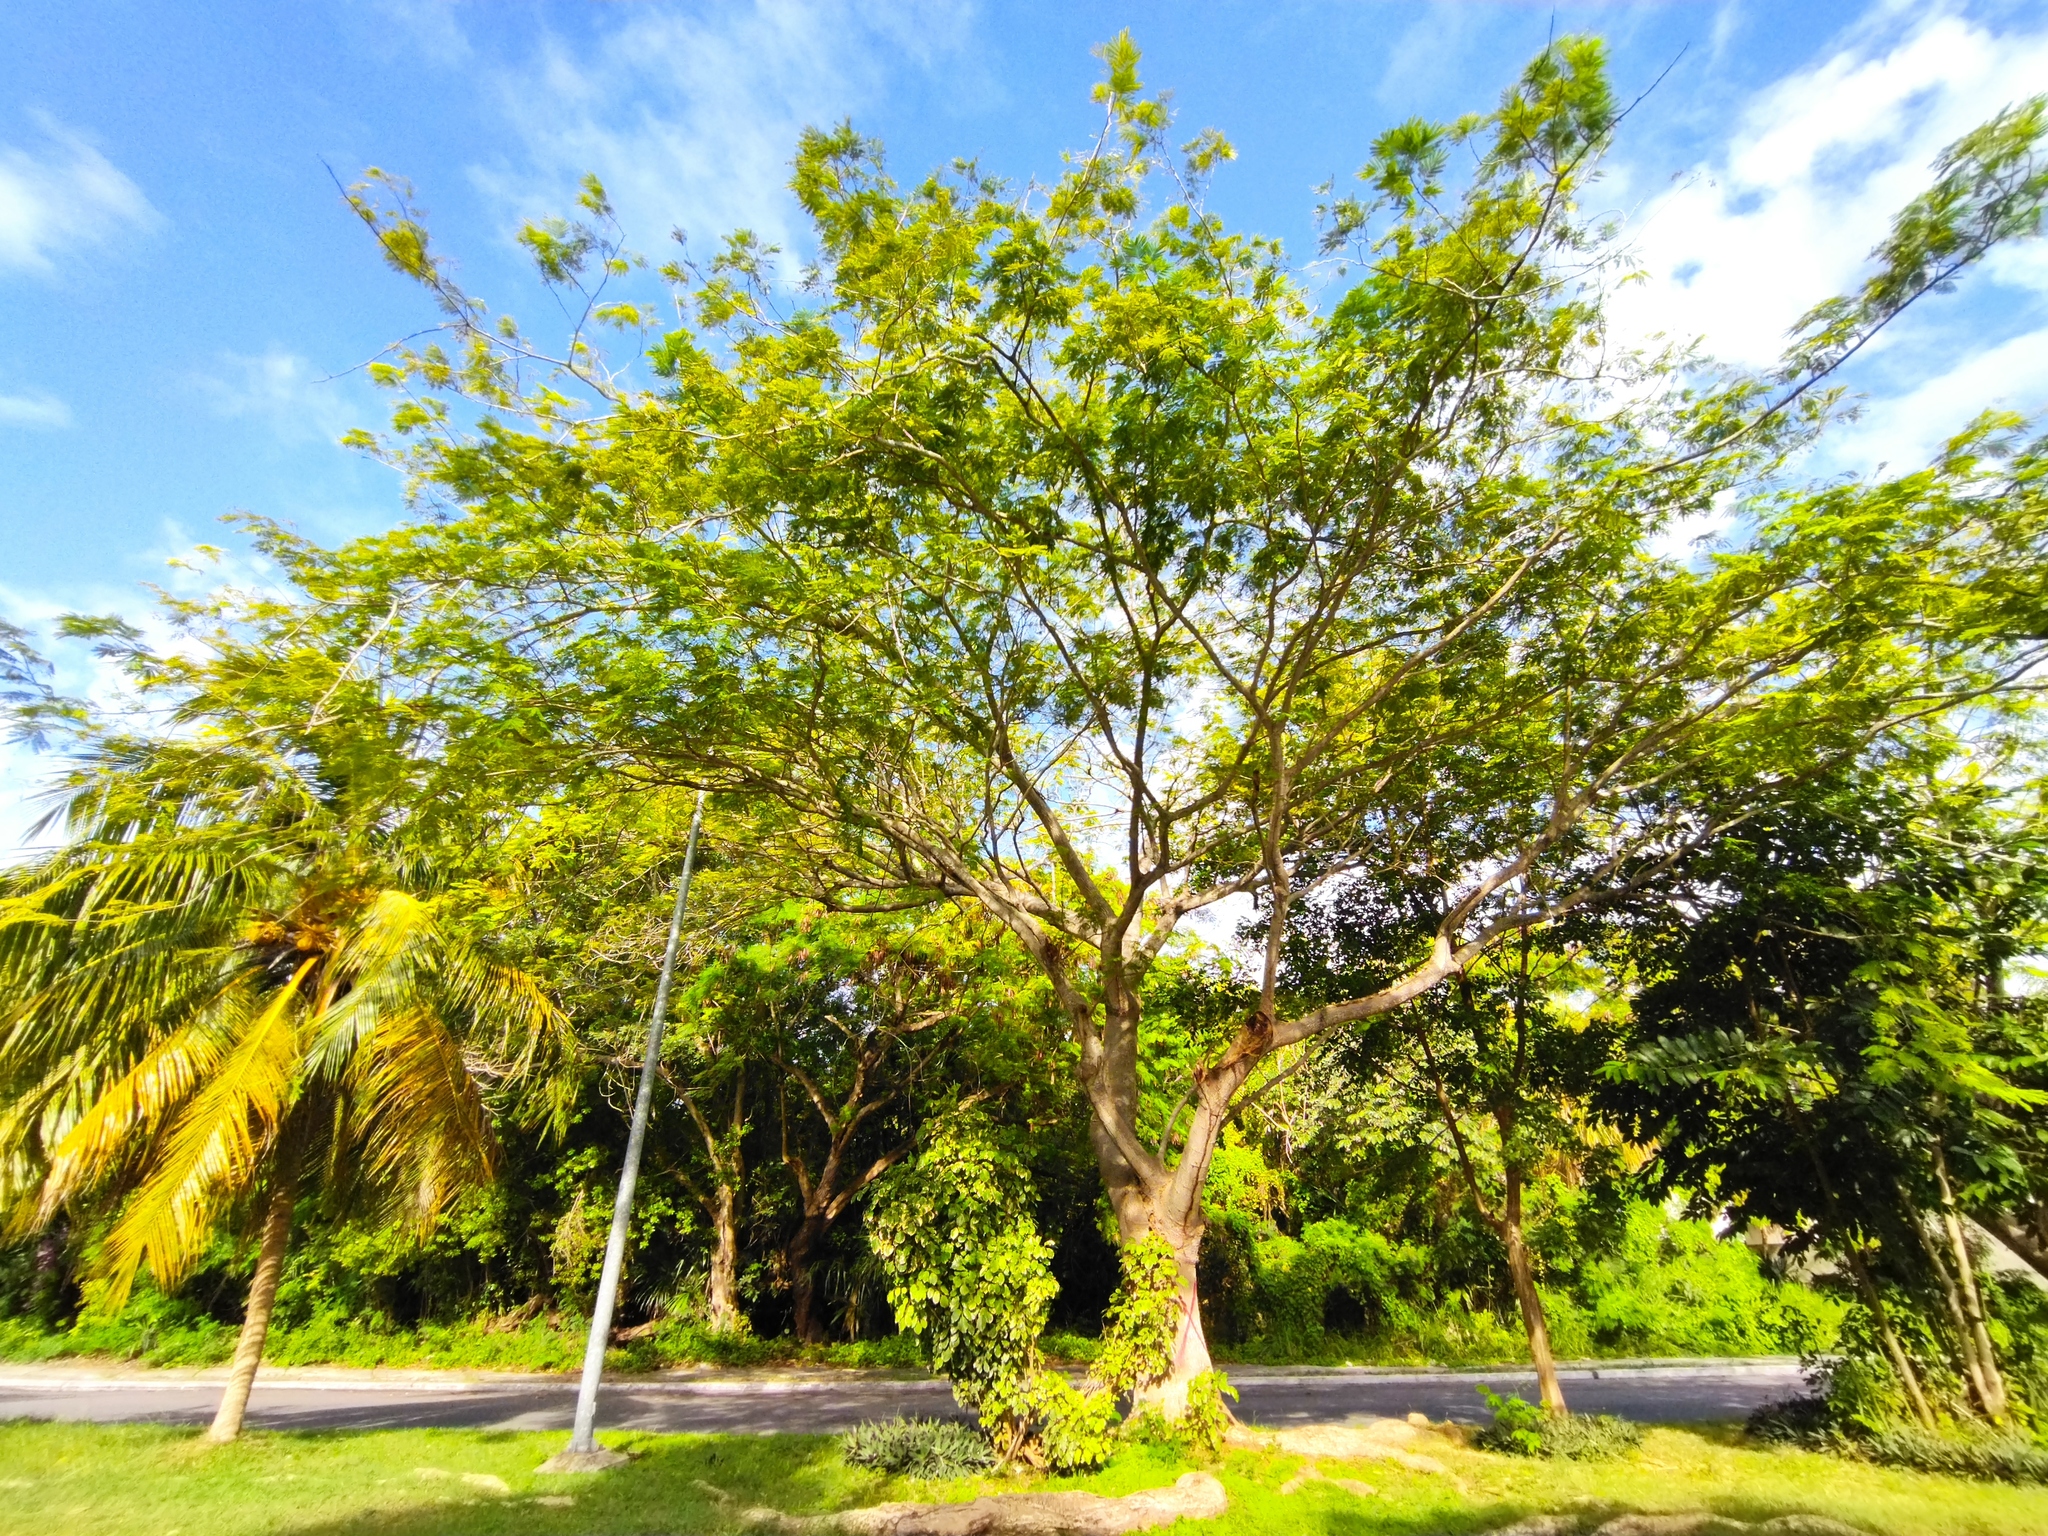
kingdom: Plantae
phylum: Tracheophyta
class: Magnoliopsida
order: Fabales
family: Fabaceae
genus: Enterolobium
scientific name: Enterolobium cyclocarpum
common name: Ear tree
